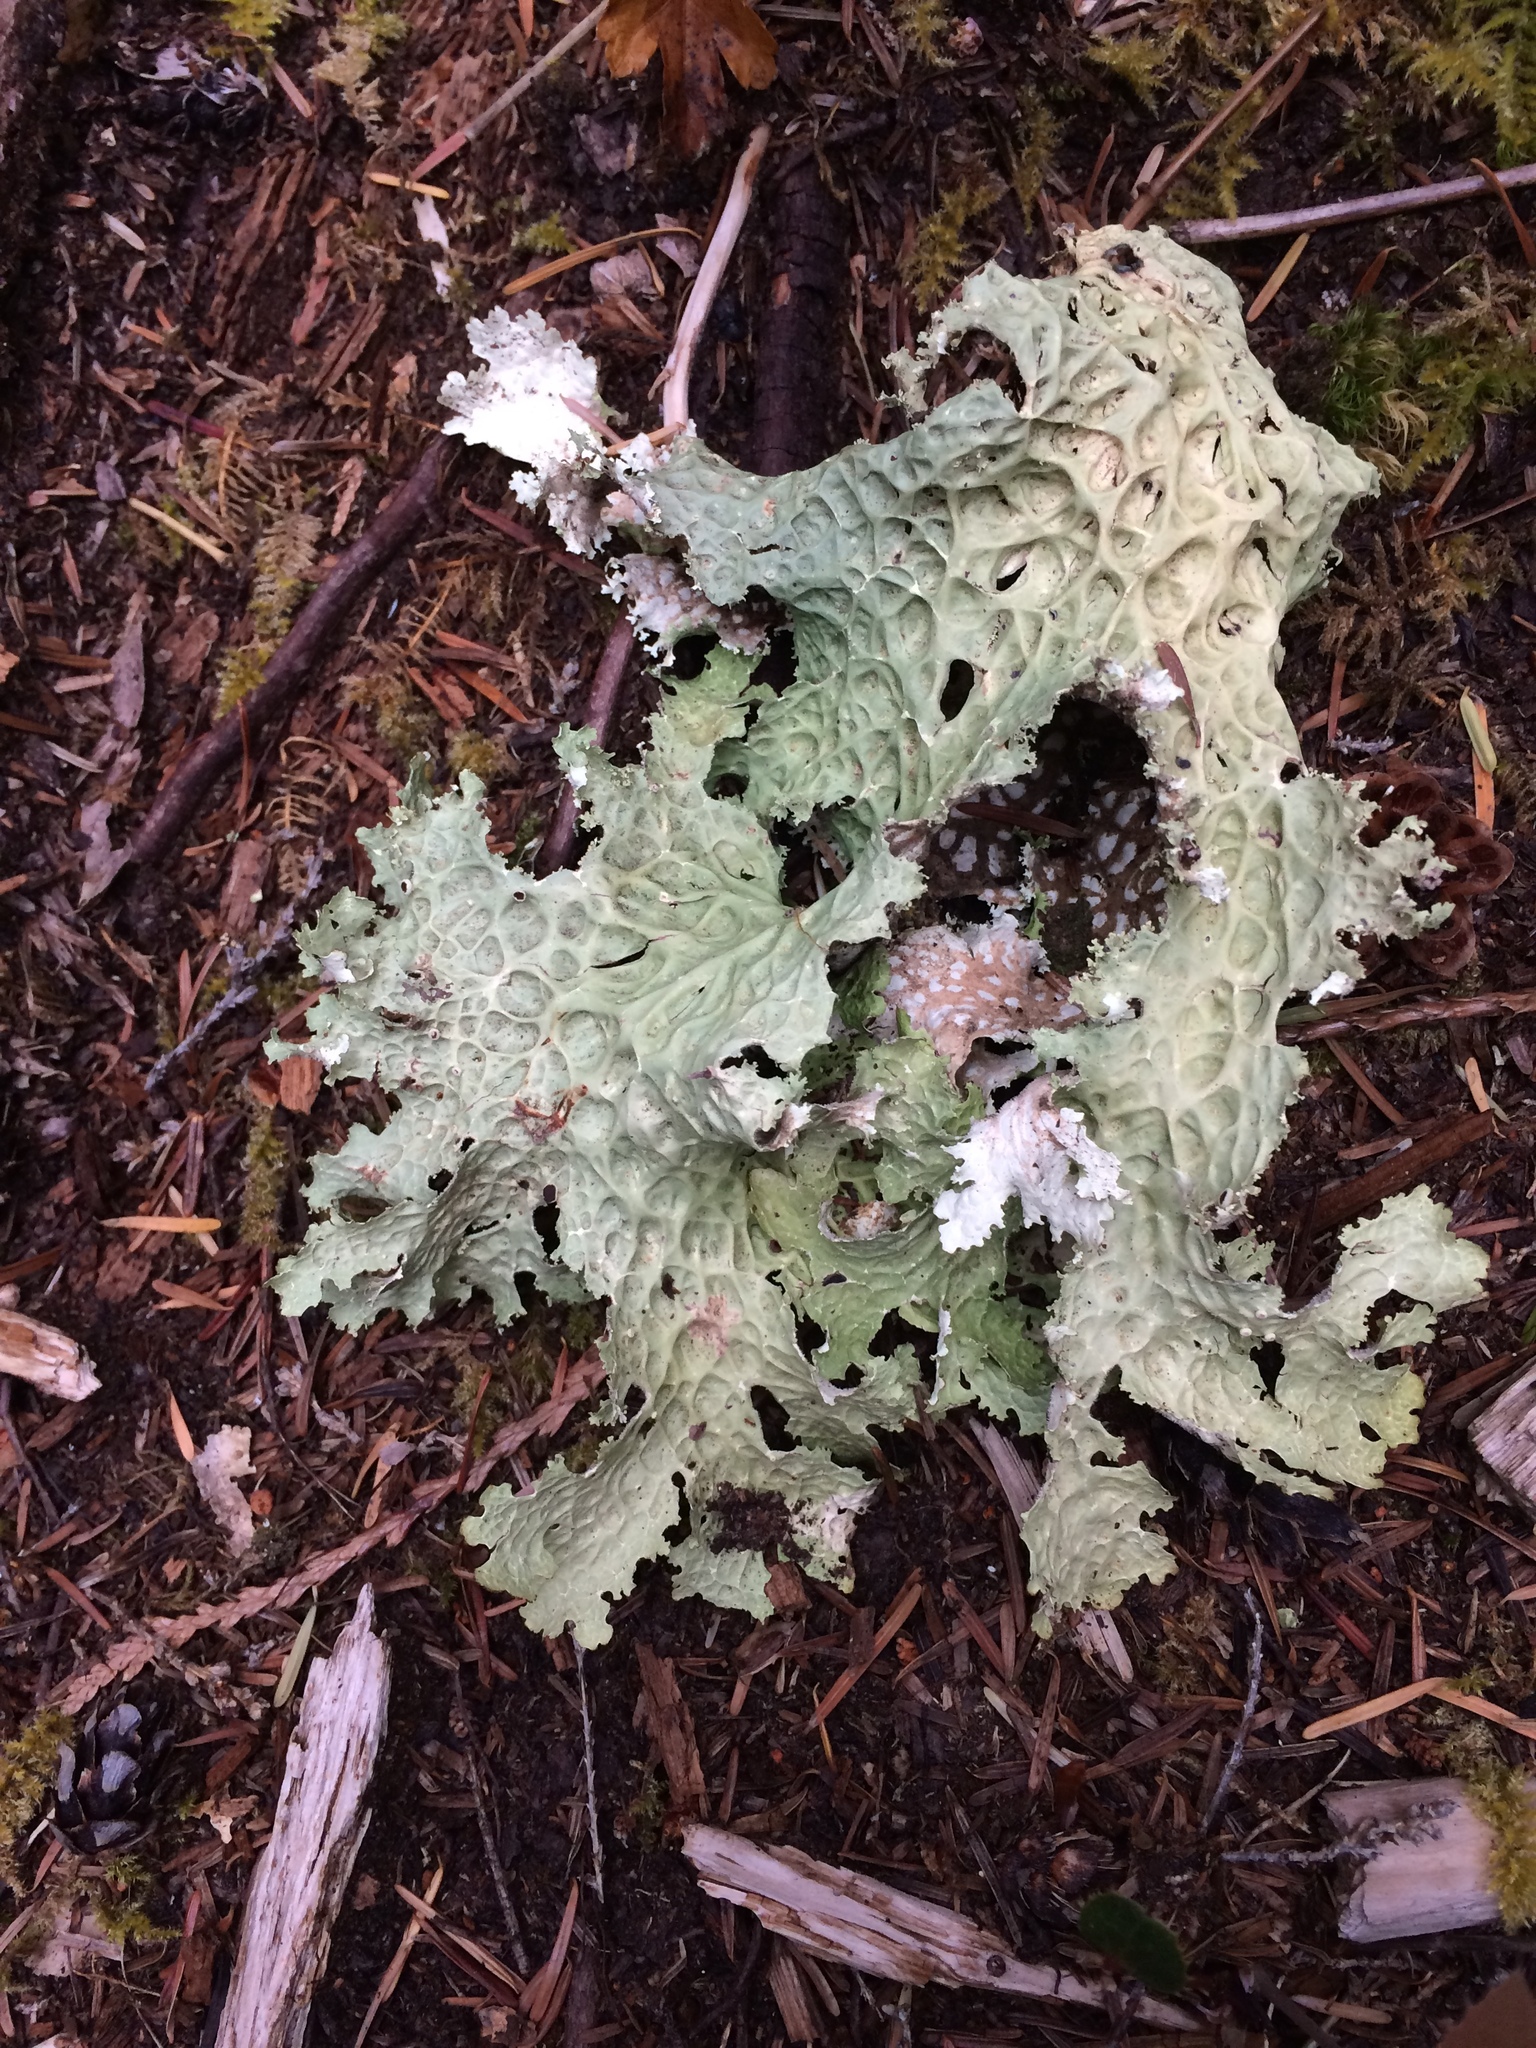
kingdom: Fungi
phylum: Ascomycota
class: Lecanoromycetes
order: Peltigerales
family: Lobariaceae
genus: Lobaria
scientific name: Lobaria oregana
